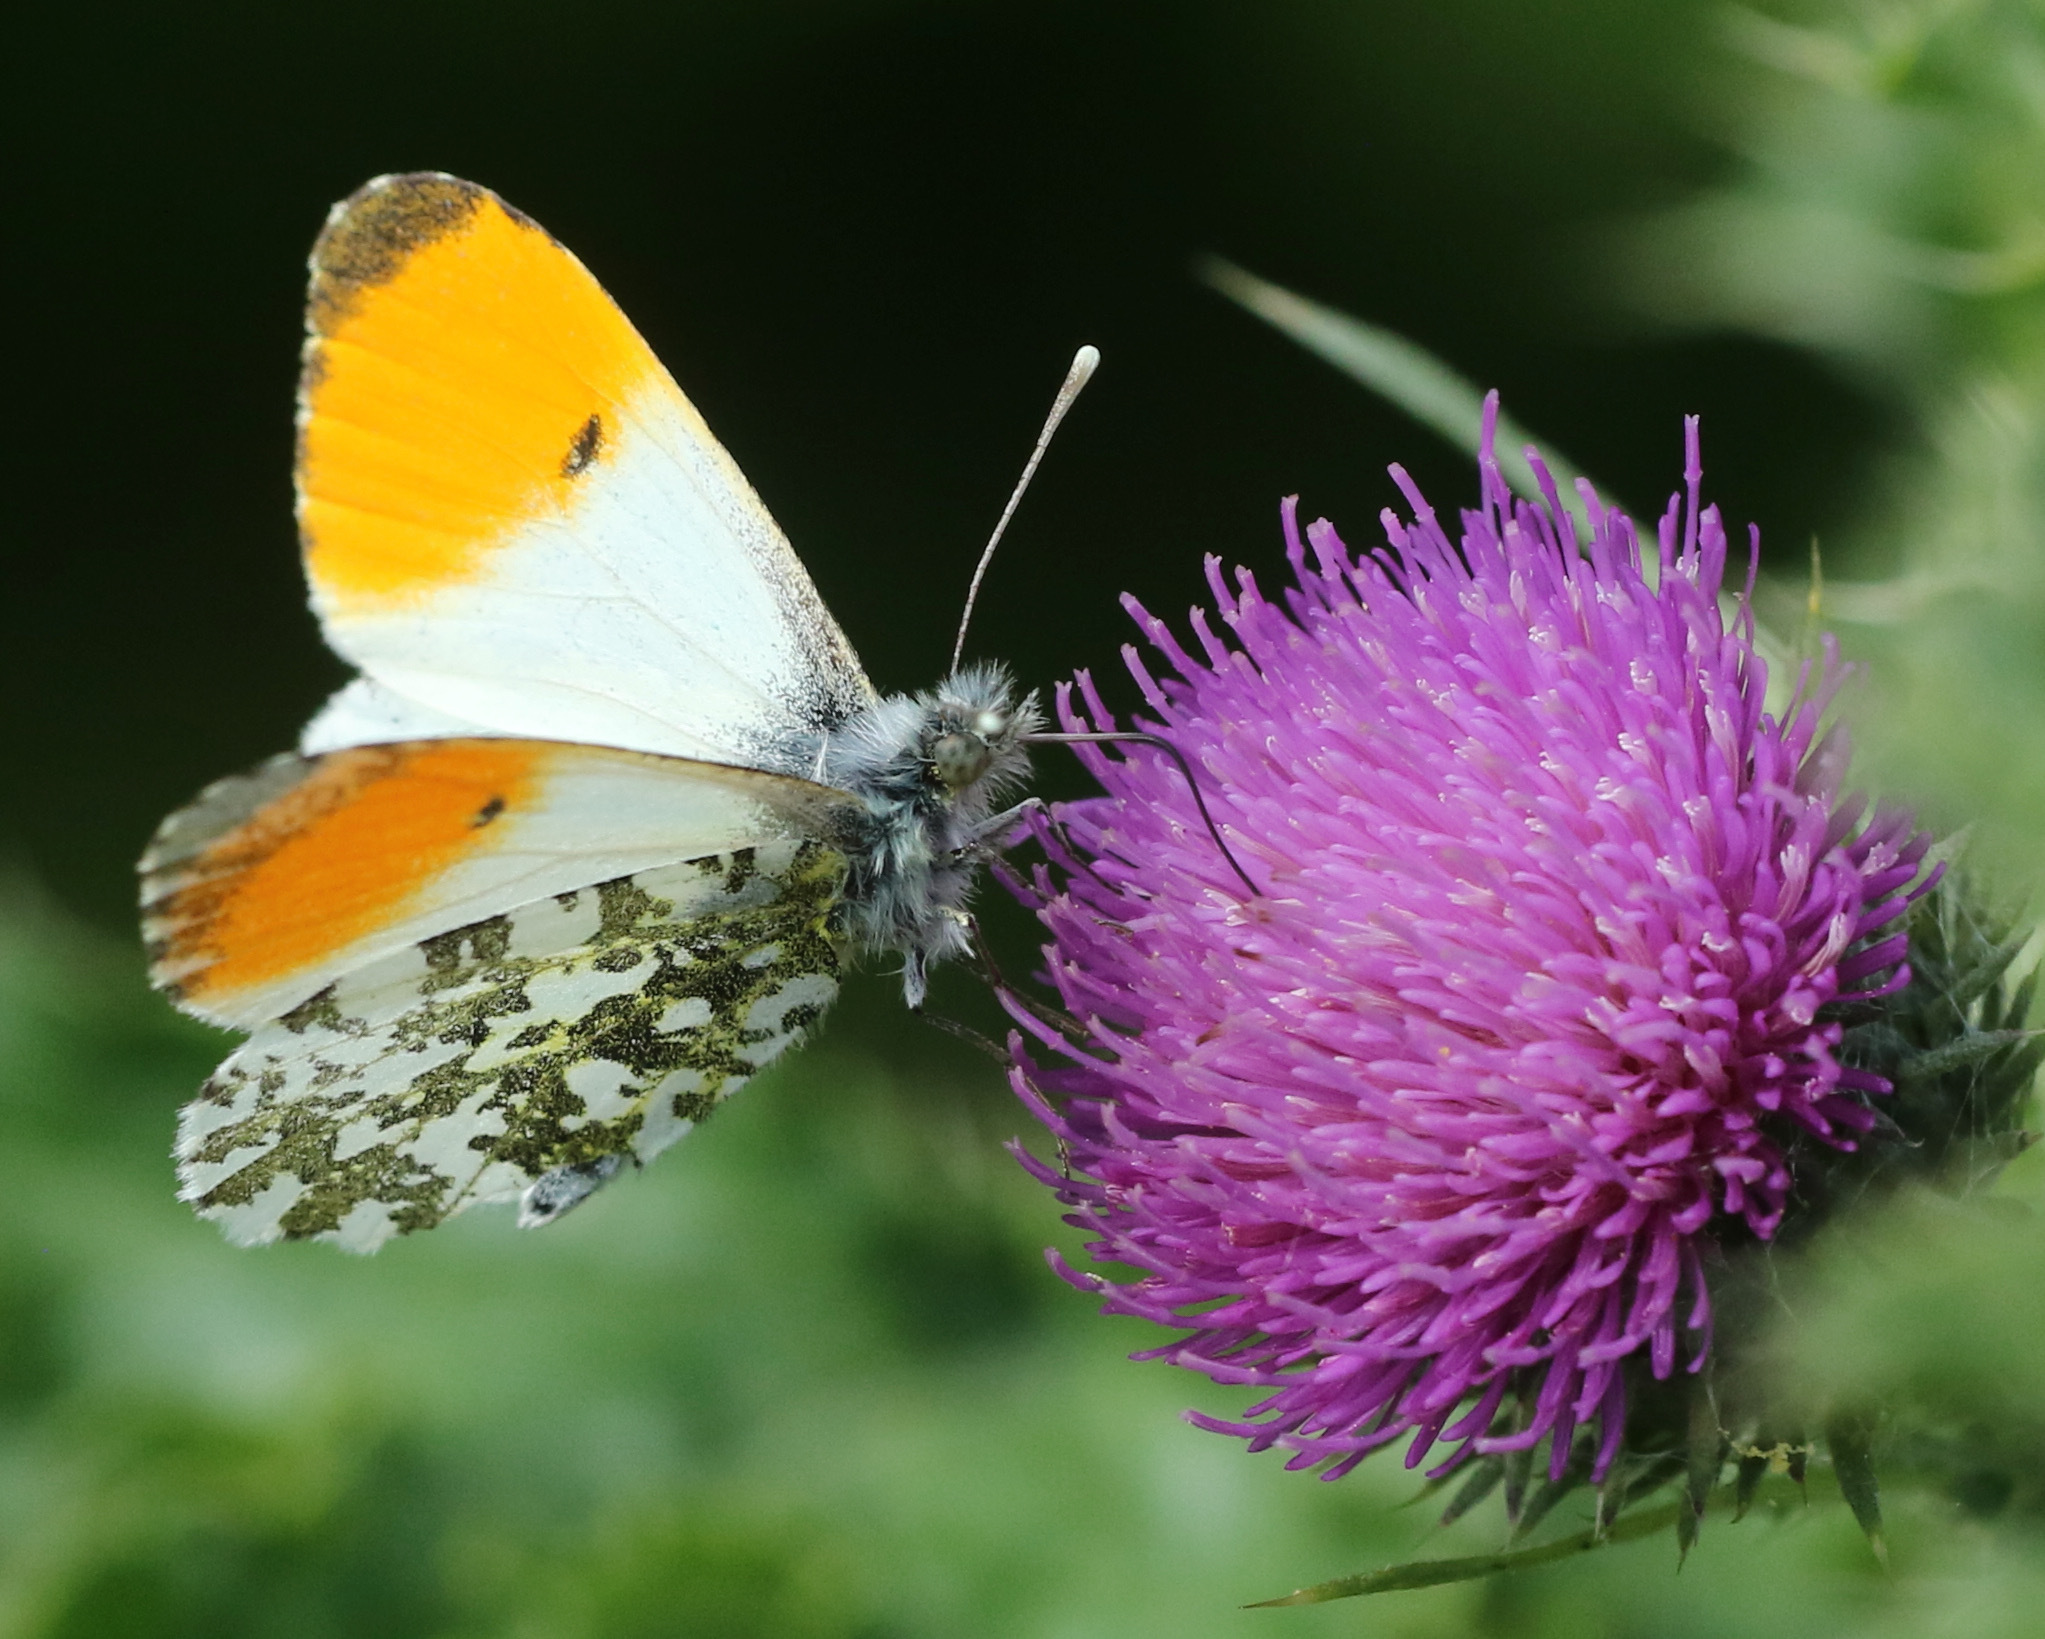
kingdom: Animalia
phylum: Arthropoda
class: Insecta
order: Lepidoptera
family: Pieridae
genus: Anthocharis
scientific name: Anthocharis cardamines
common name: Orange-tip
